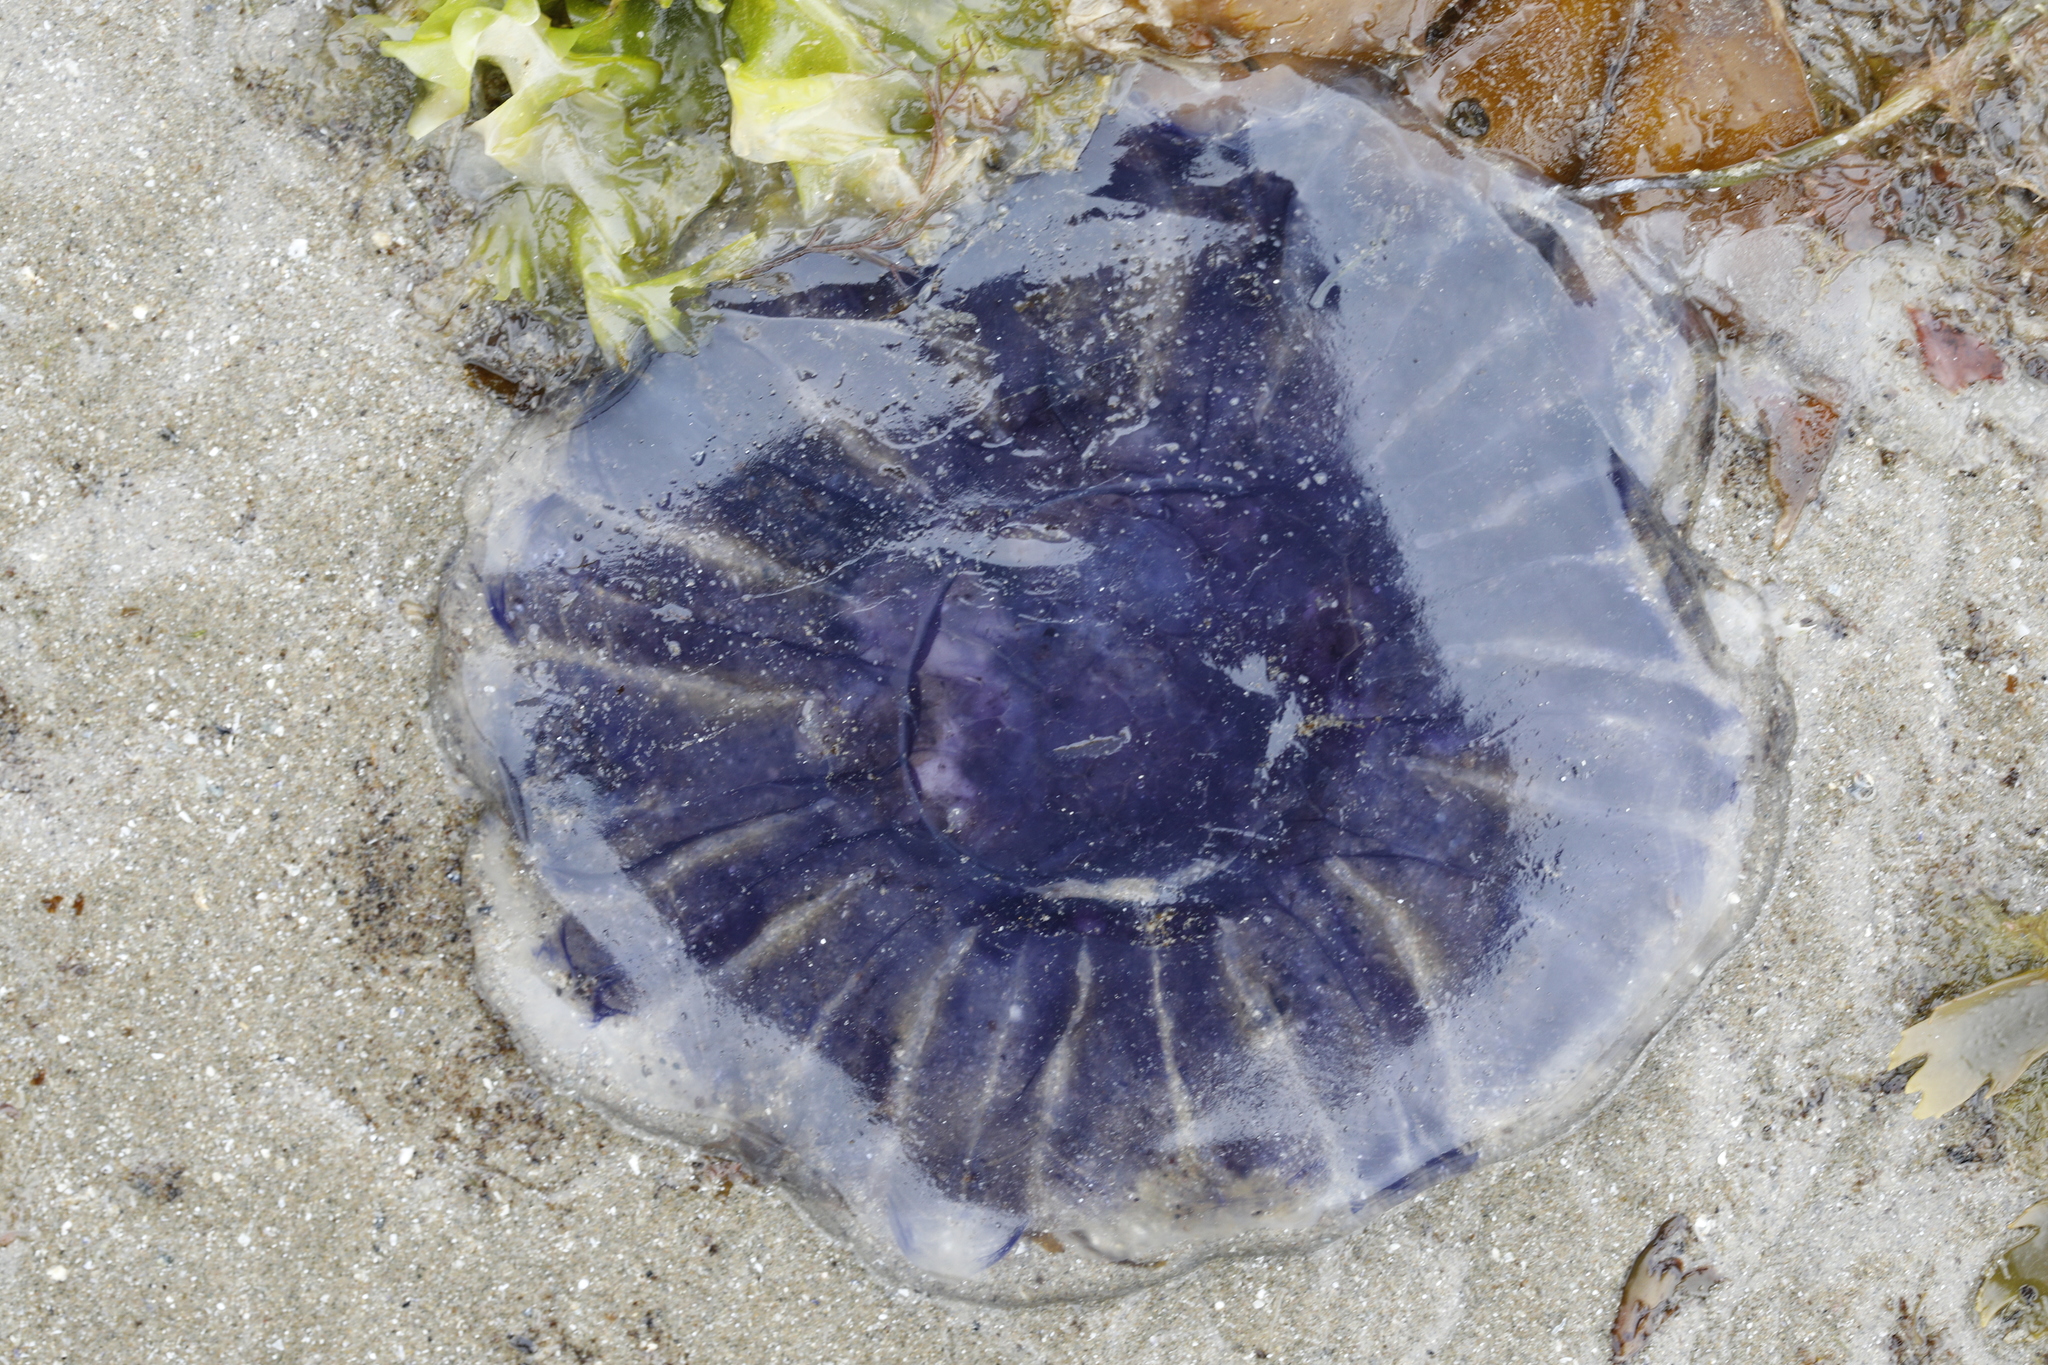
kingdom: Animalia
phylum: Cnidaria
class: Scyphozoa
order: Semaeostomeae
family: Cyaneidae
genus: Cyanea
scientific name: Cyanea lamarckii
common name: Blue jellyfish
